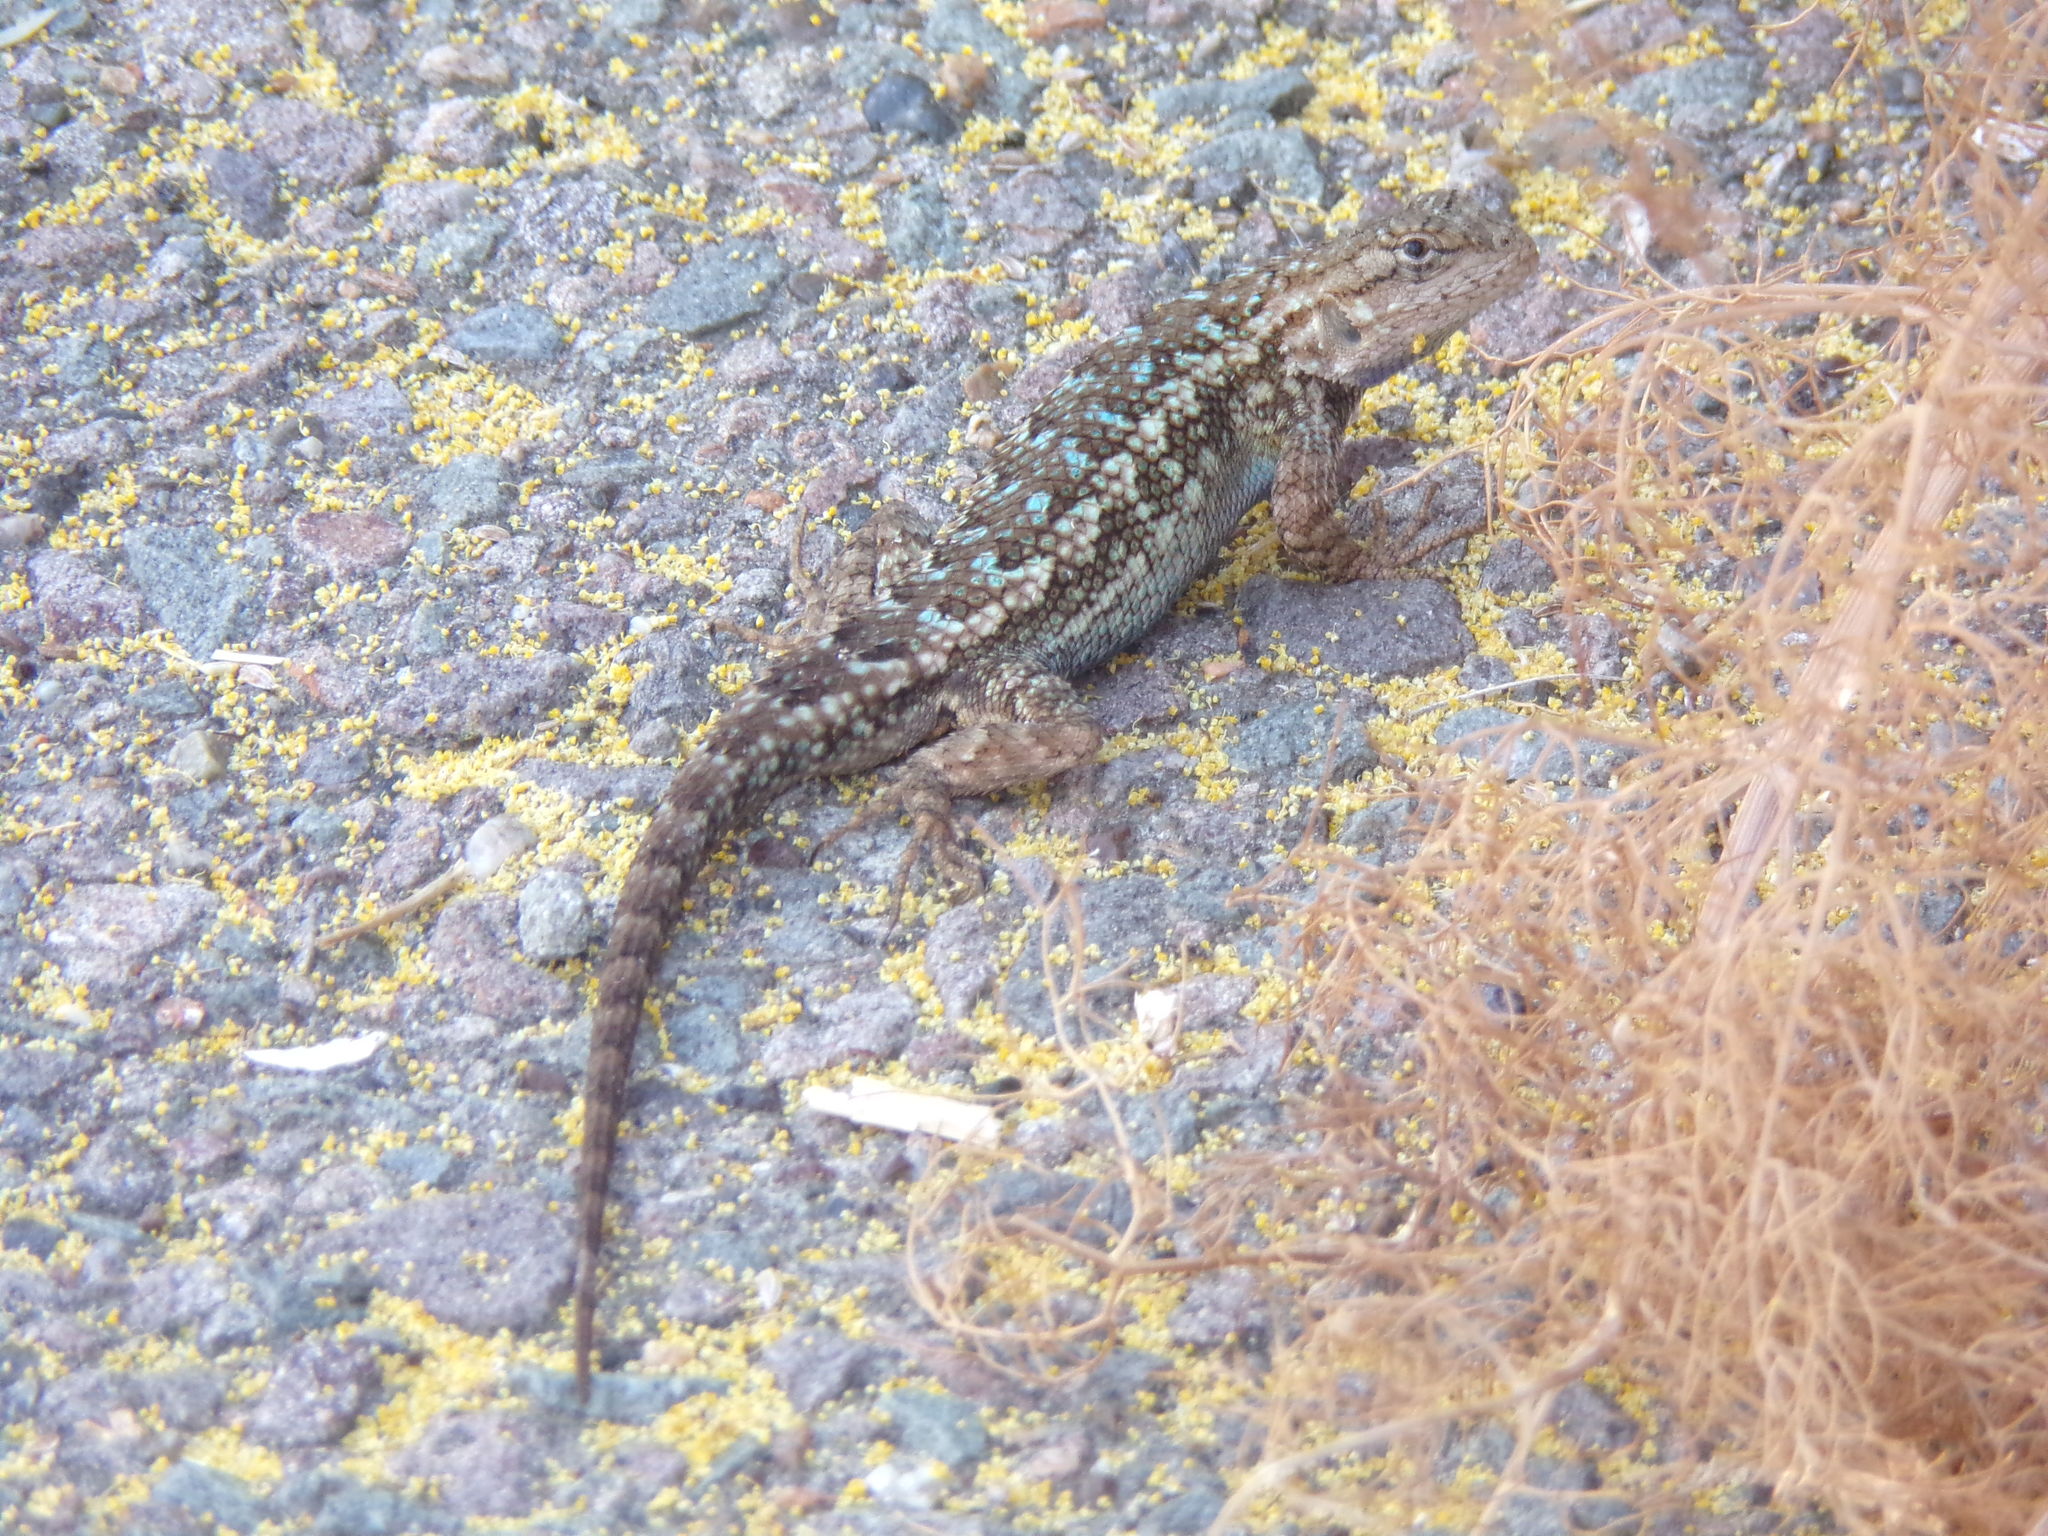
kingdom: Animalia
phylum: Chordata
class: Squamata
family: Phrynosomatidae
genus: Sceloporus
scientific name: Sceloporus occidentalis
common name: Western fence lizard
